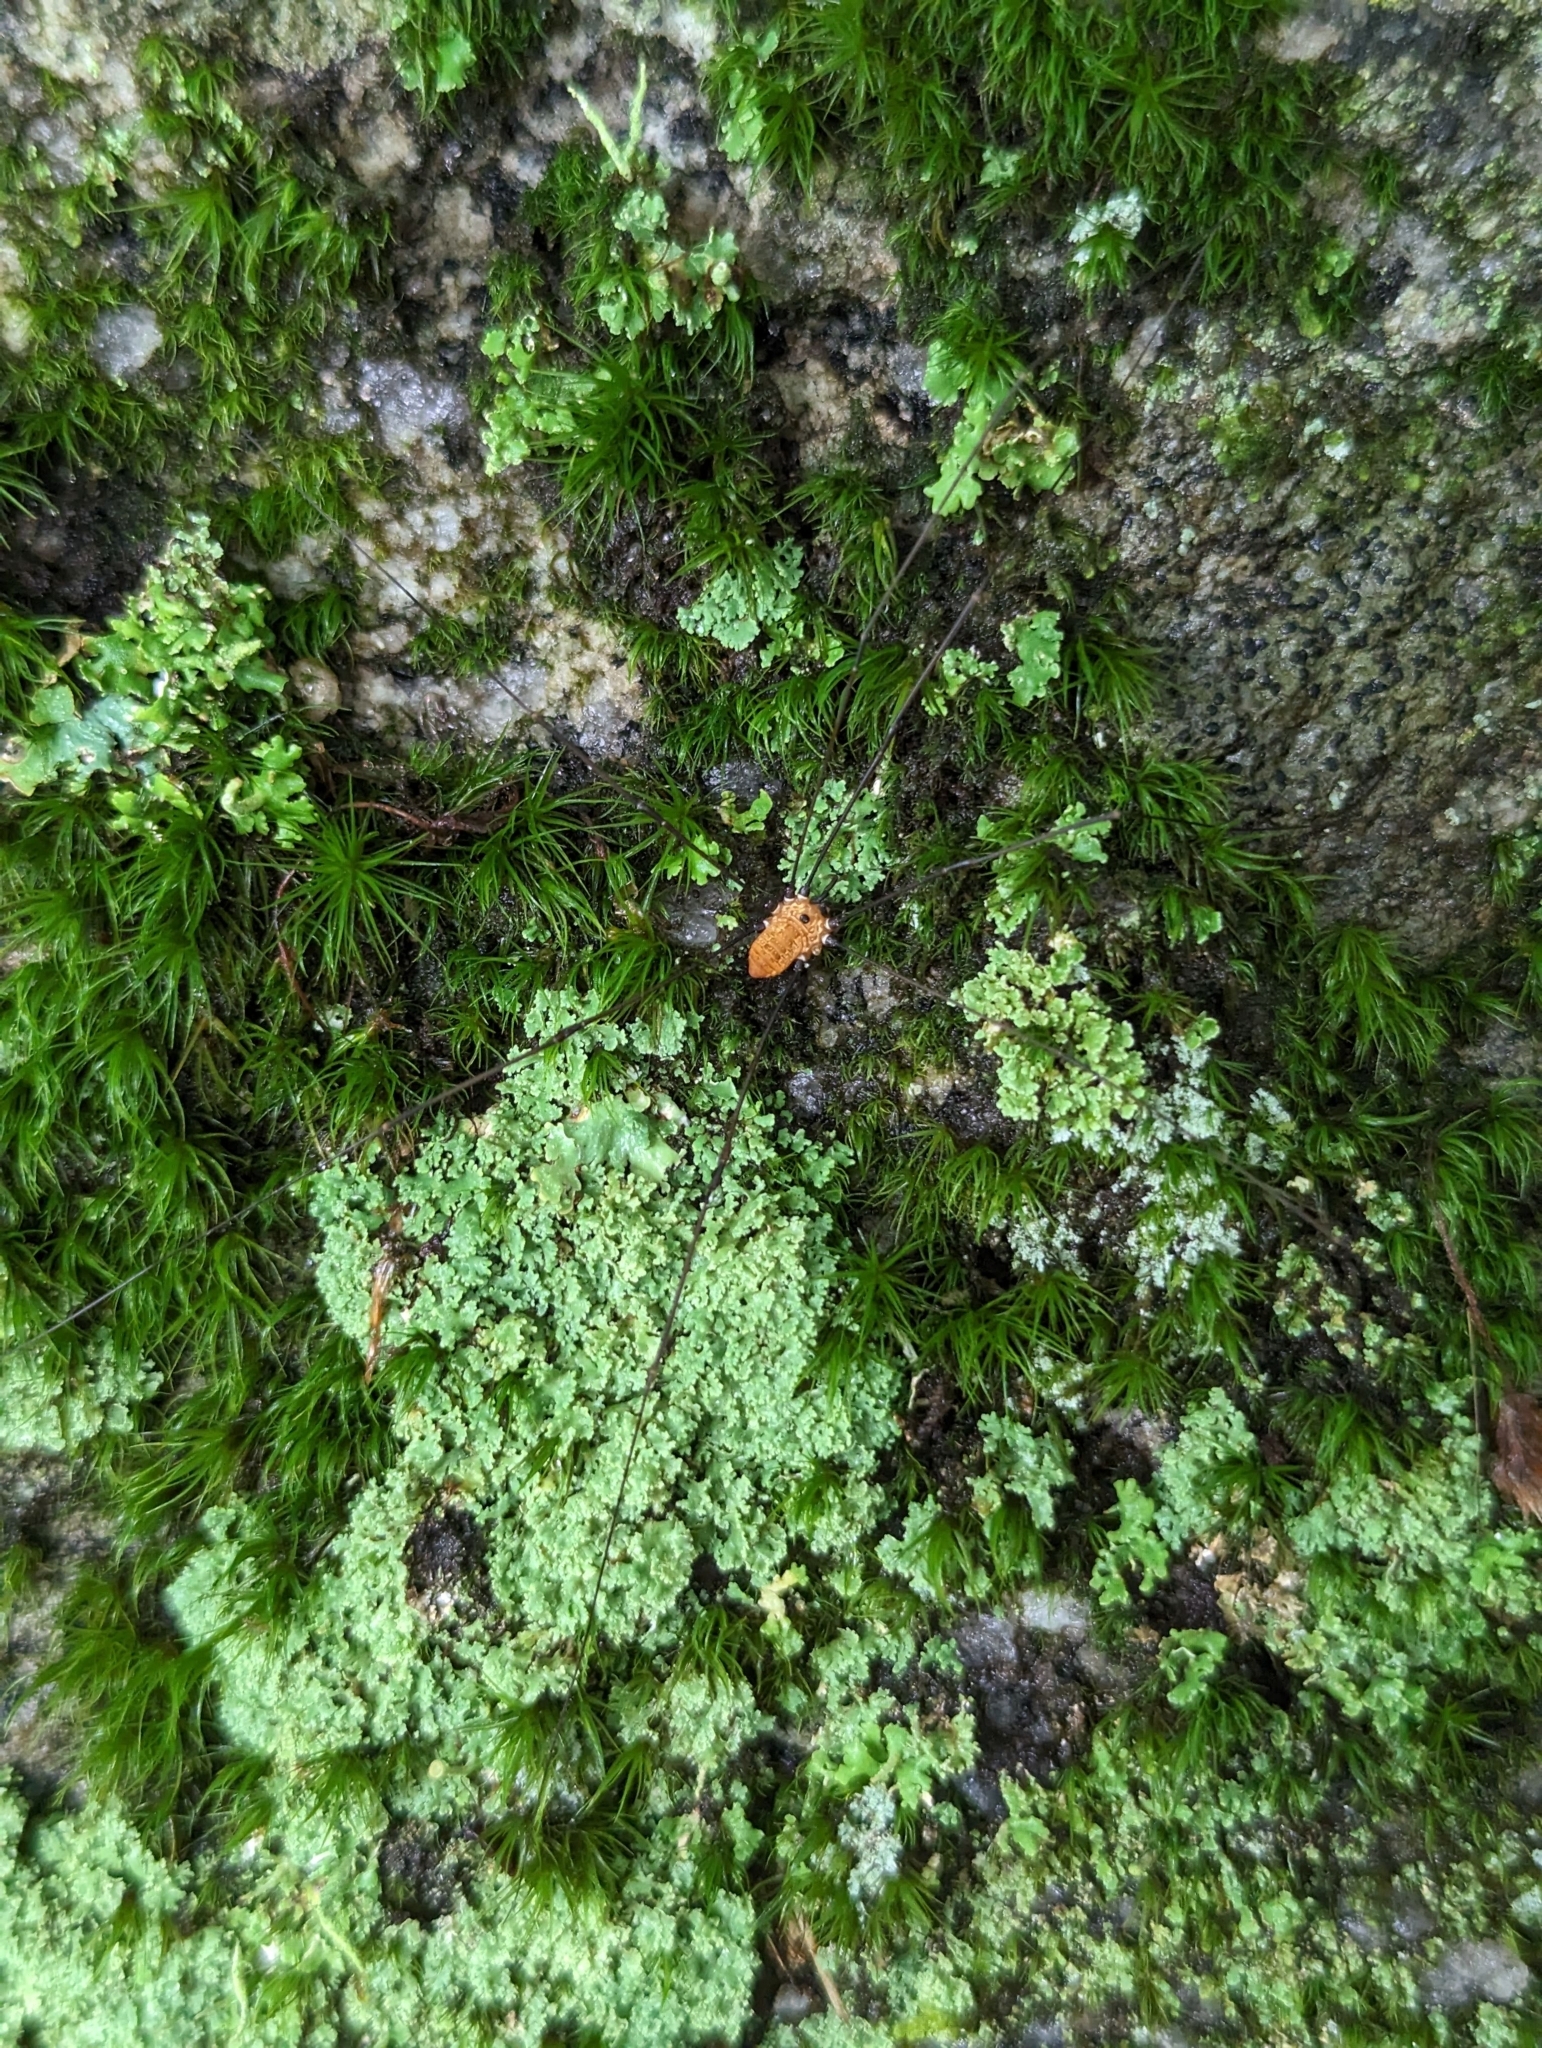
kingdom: Animalia
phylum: Arthropoda
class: Arachnida
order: Opiliones
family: Sclerosomatidae
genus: Leiobunum
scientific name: Leiobunum nigropalpi
